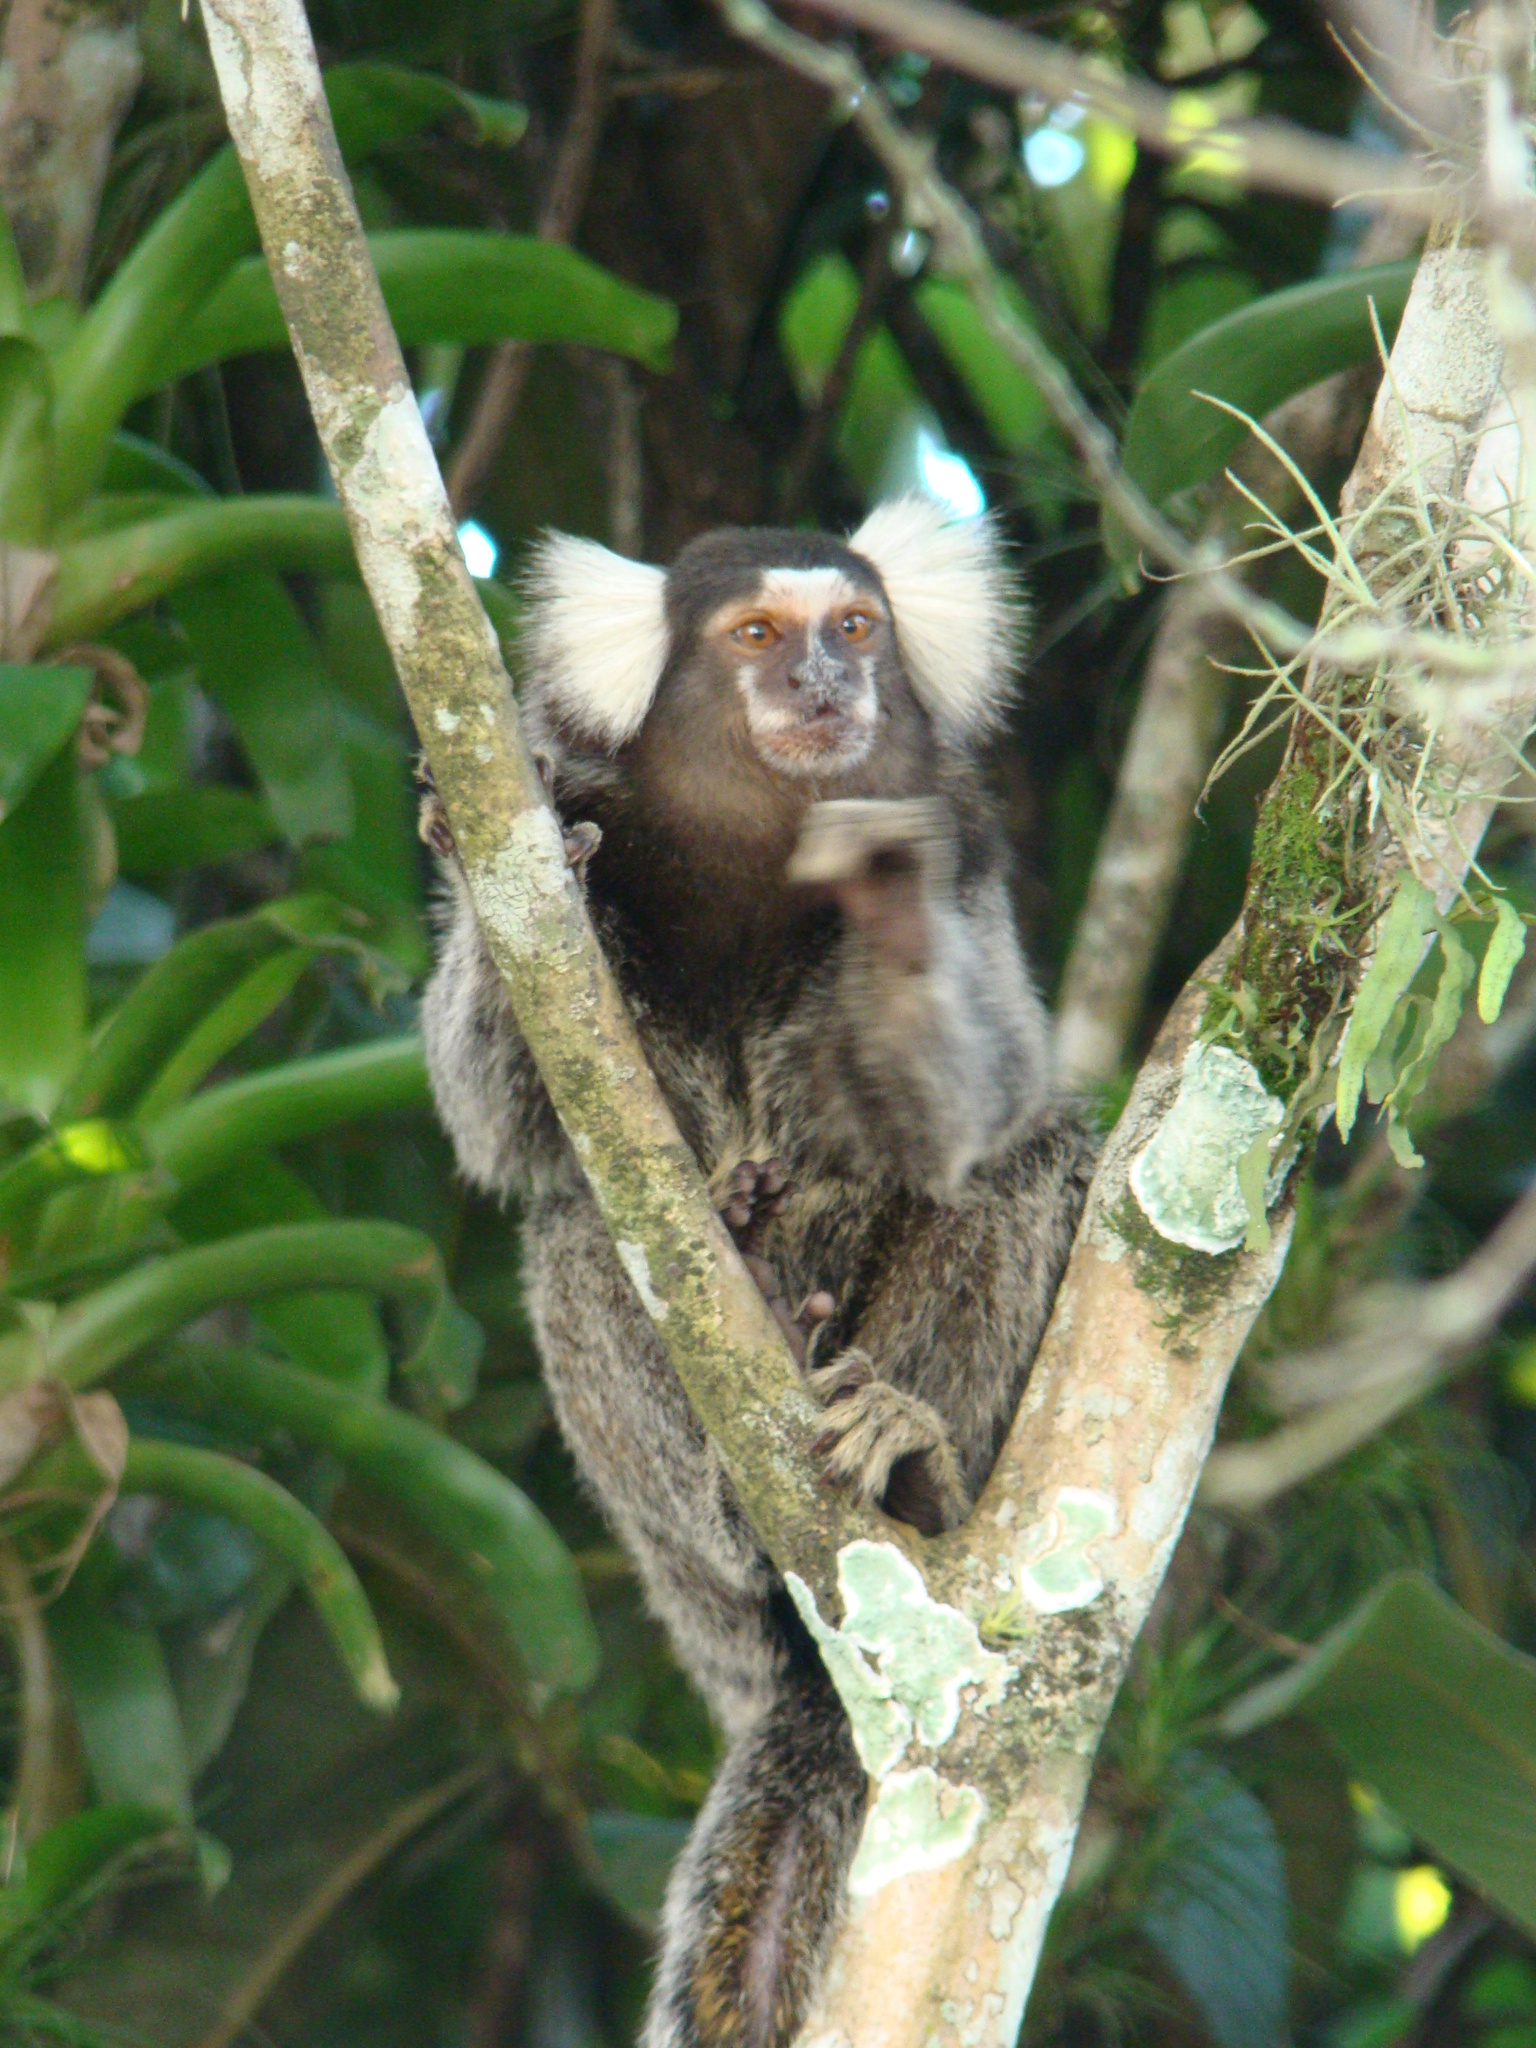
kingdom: Animalia
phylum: Chordata
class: Mammalia
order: Primates
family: Callitrichidae
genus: Callithrix
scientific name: Callithrix jacchus
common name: Common marmoset
